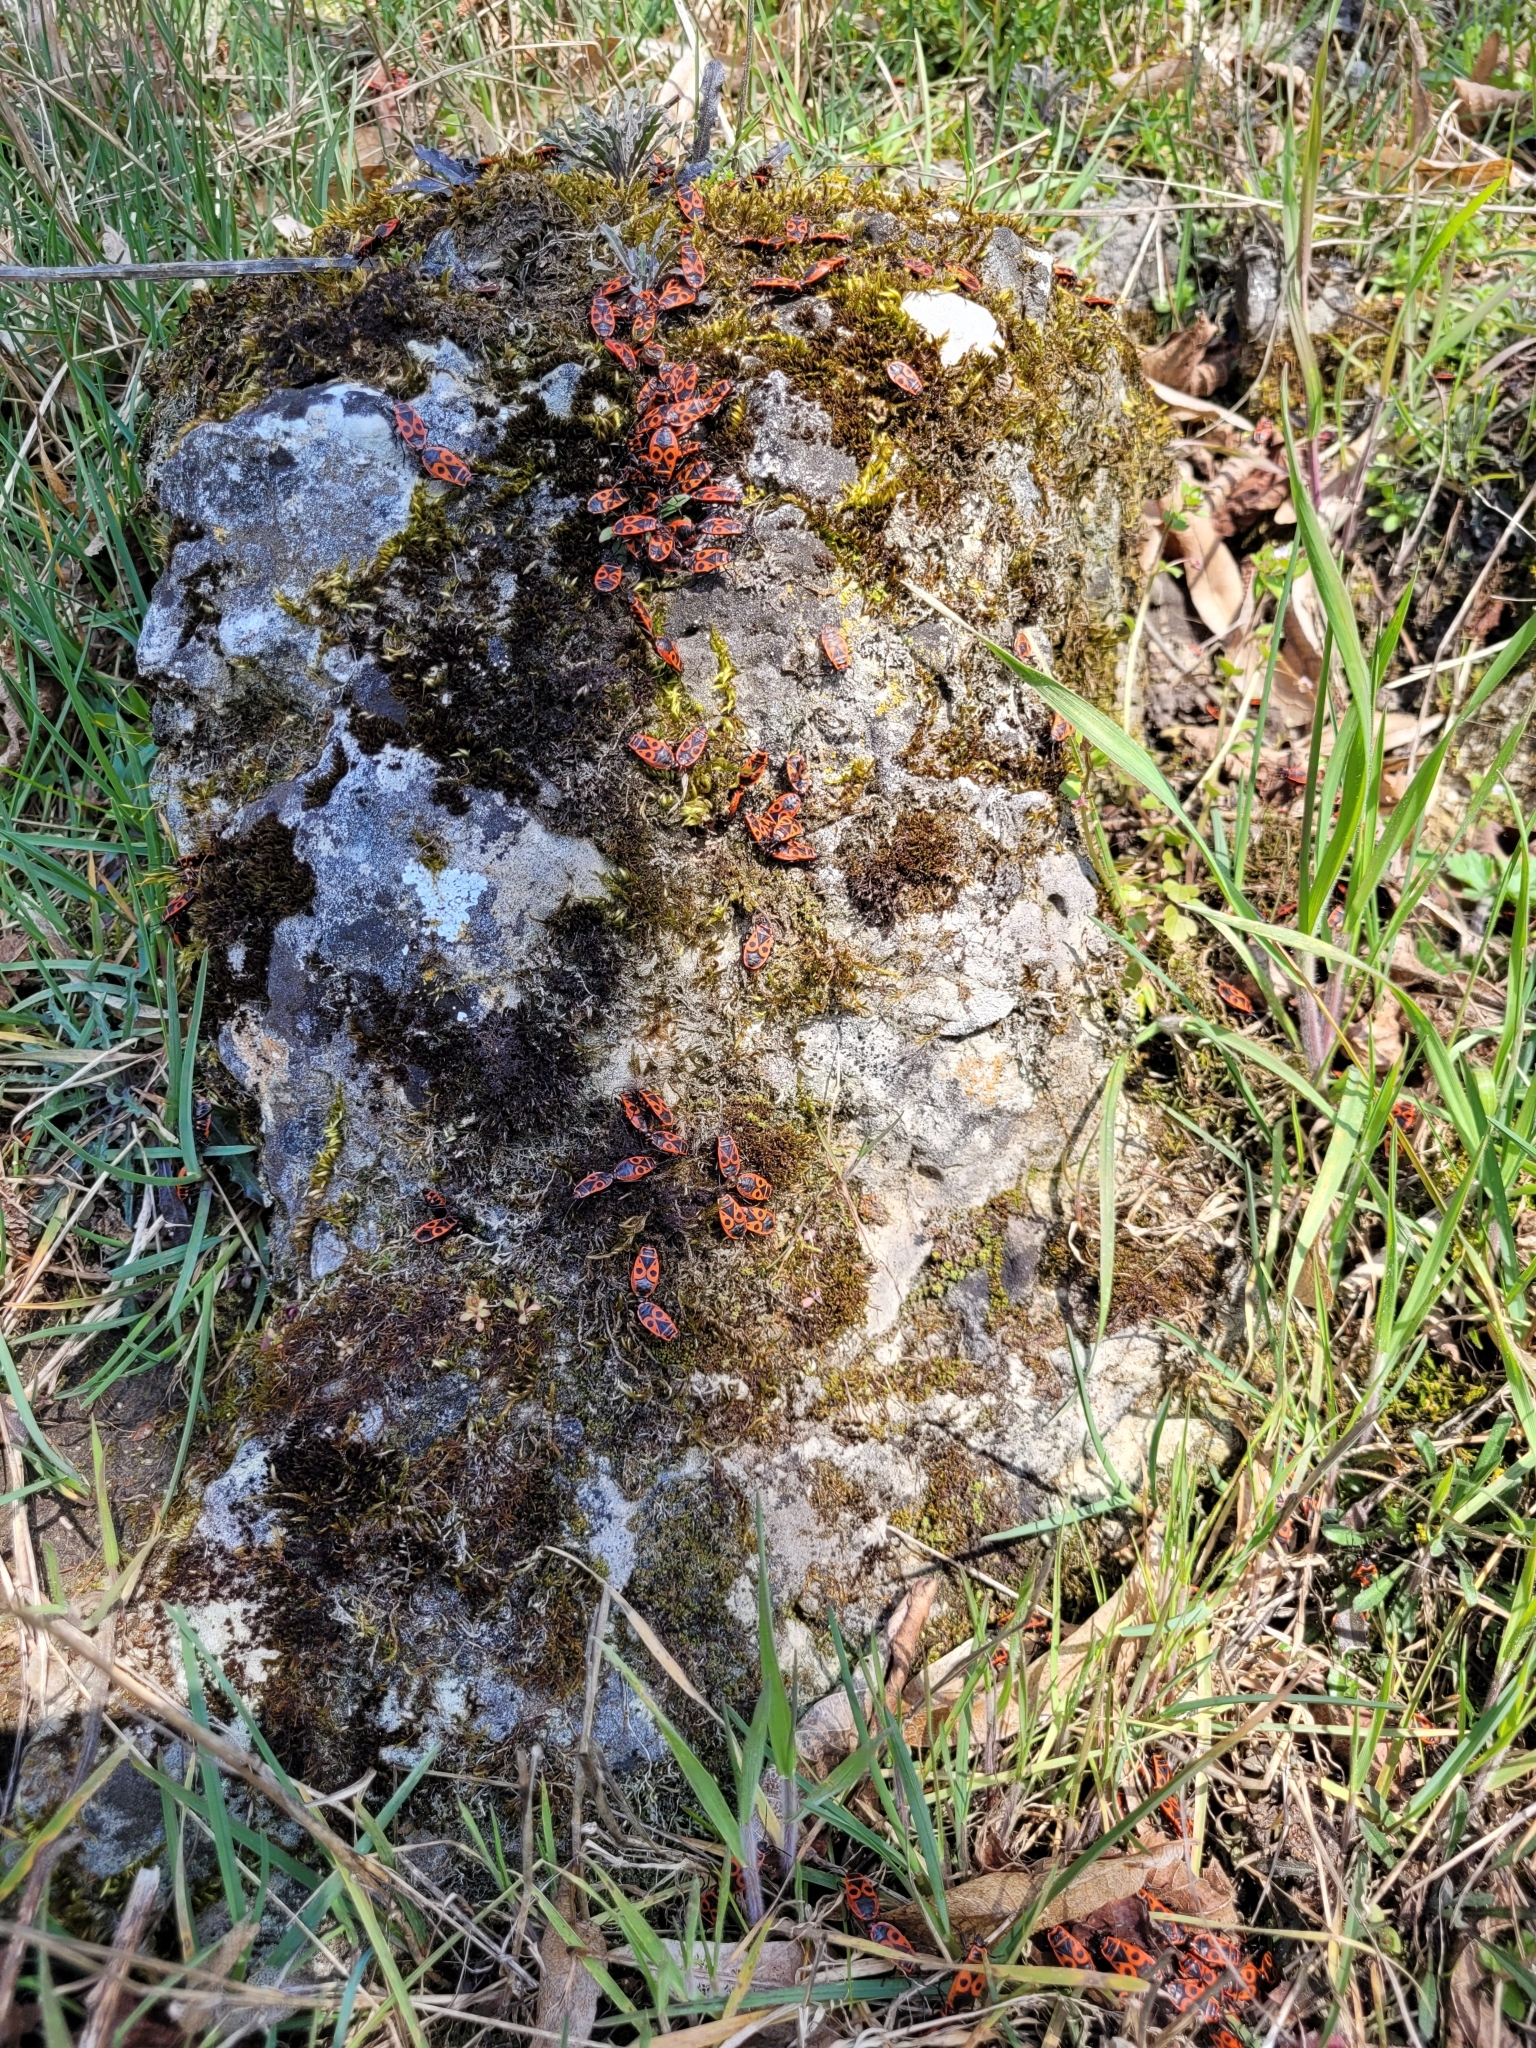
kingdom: Animalia
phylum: Arthropoda
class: Insecta
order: Hemiptera
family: Pyrrhocoridae
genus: Pyrrhocoris
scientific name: Pyrrhocoris apterus
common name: Firebug
